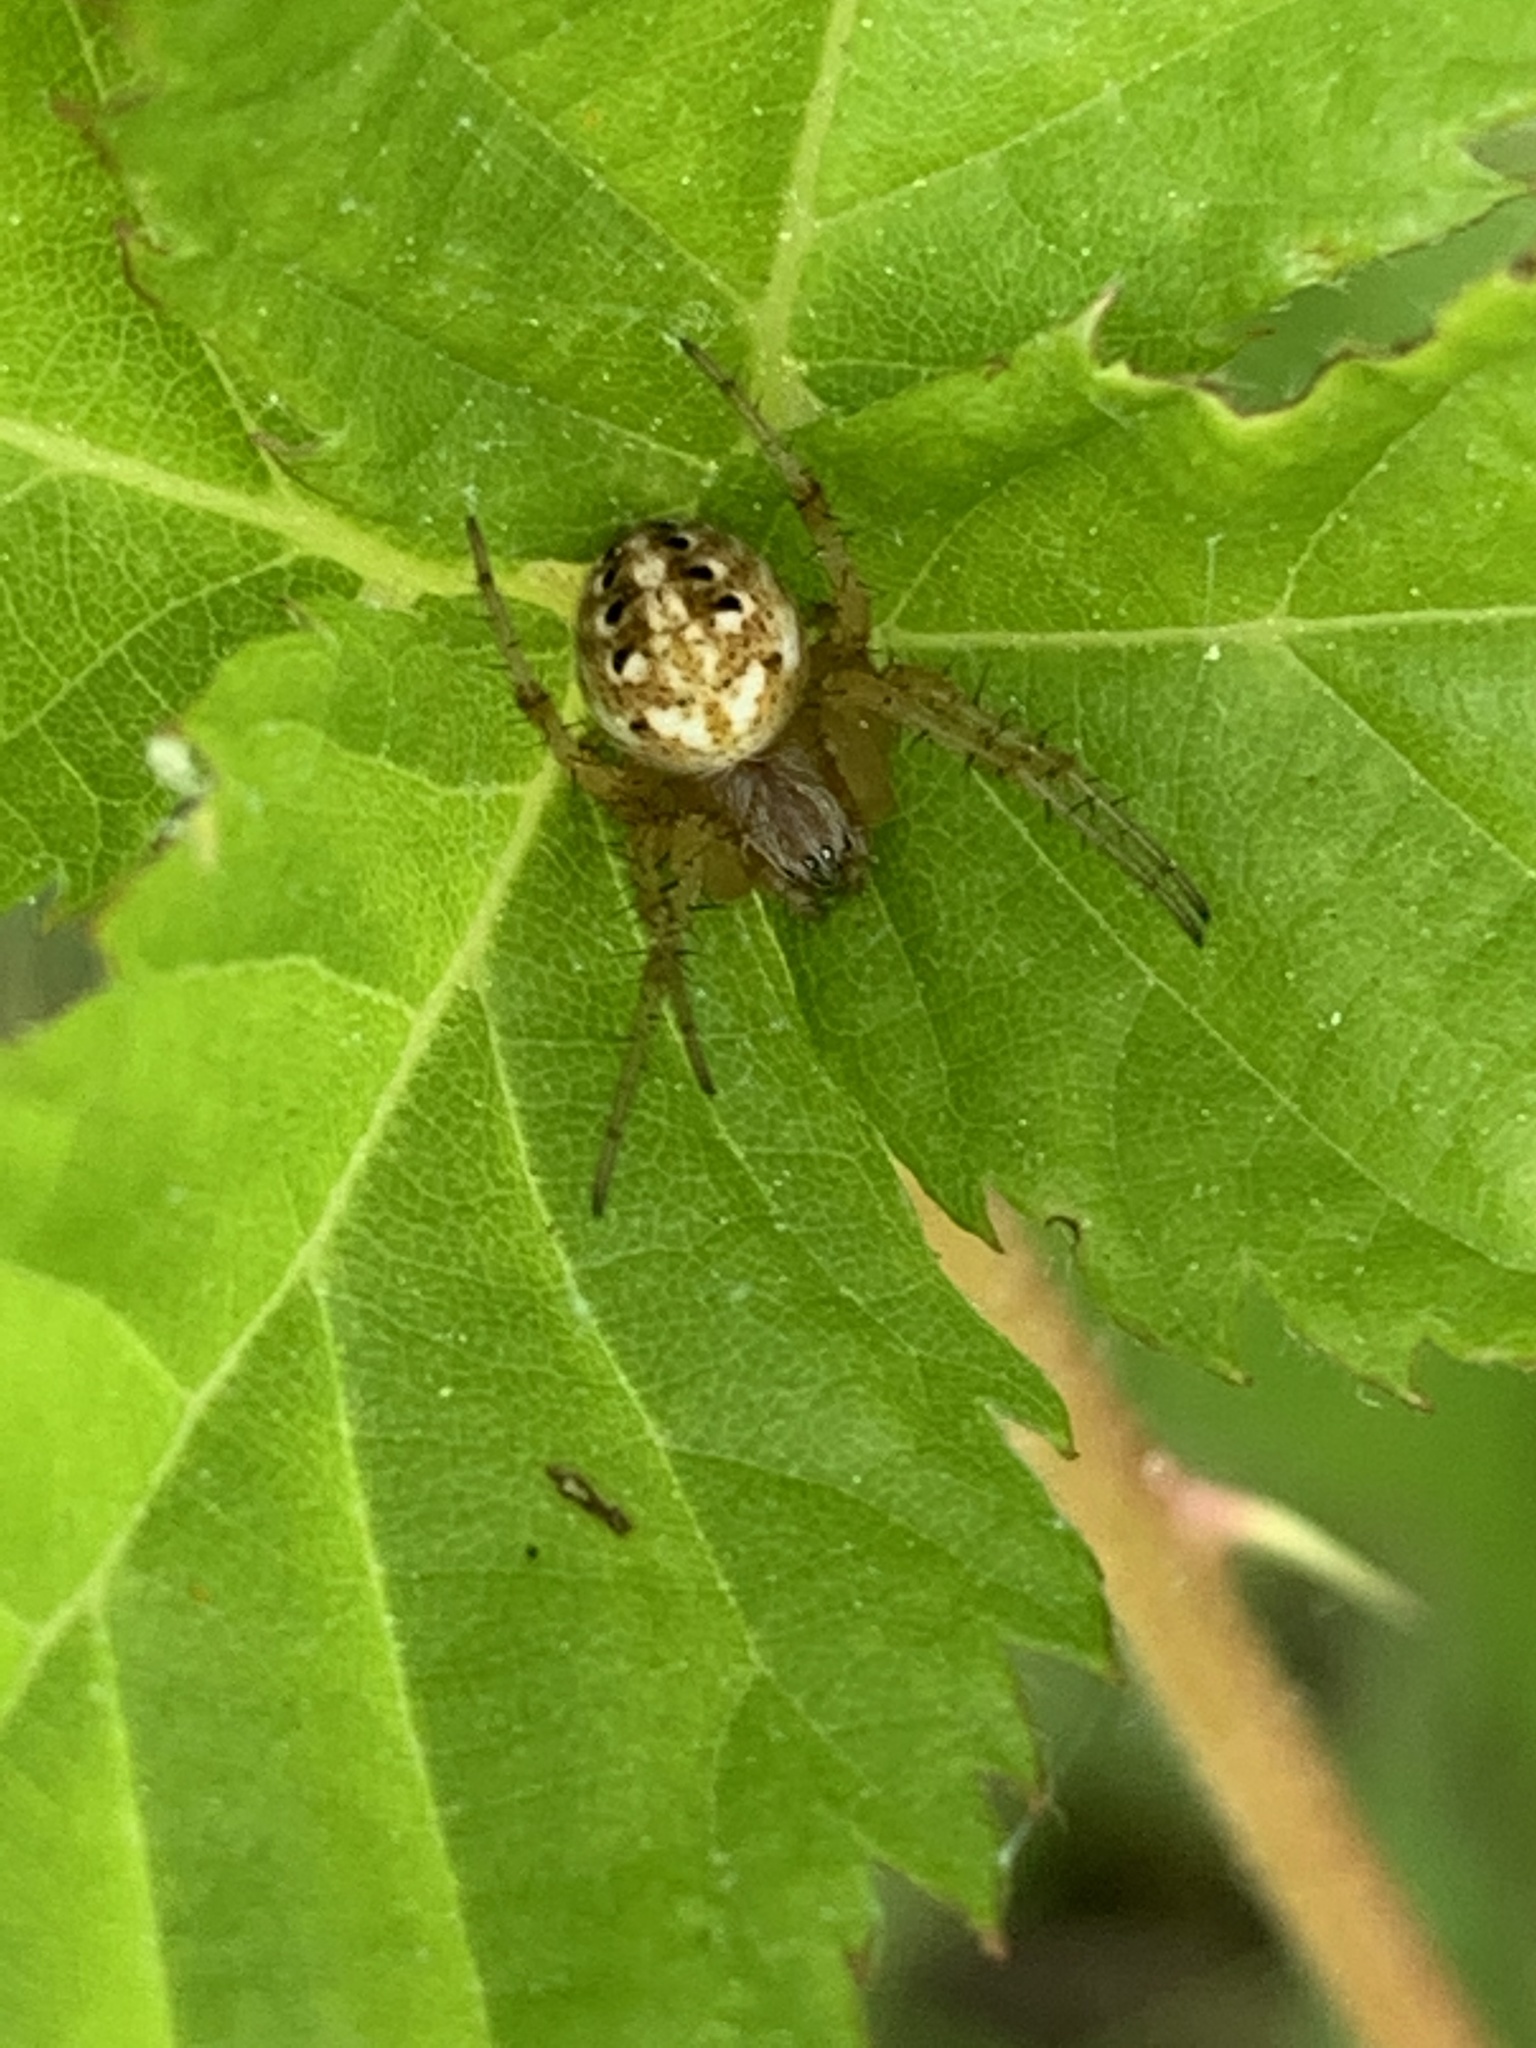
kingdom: Animalia
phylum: Arthropoda
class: Arachnida
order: Araneae
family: Araneidae
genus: Neoscona
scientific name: Neoscona arabesca
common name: Orb weavers
